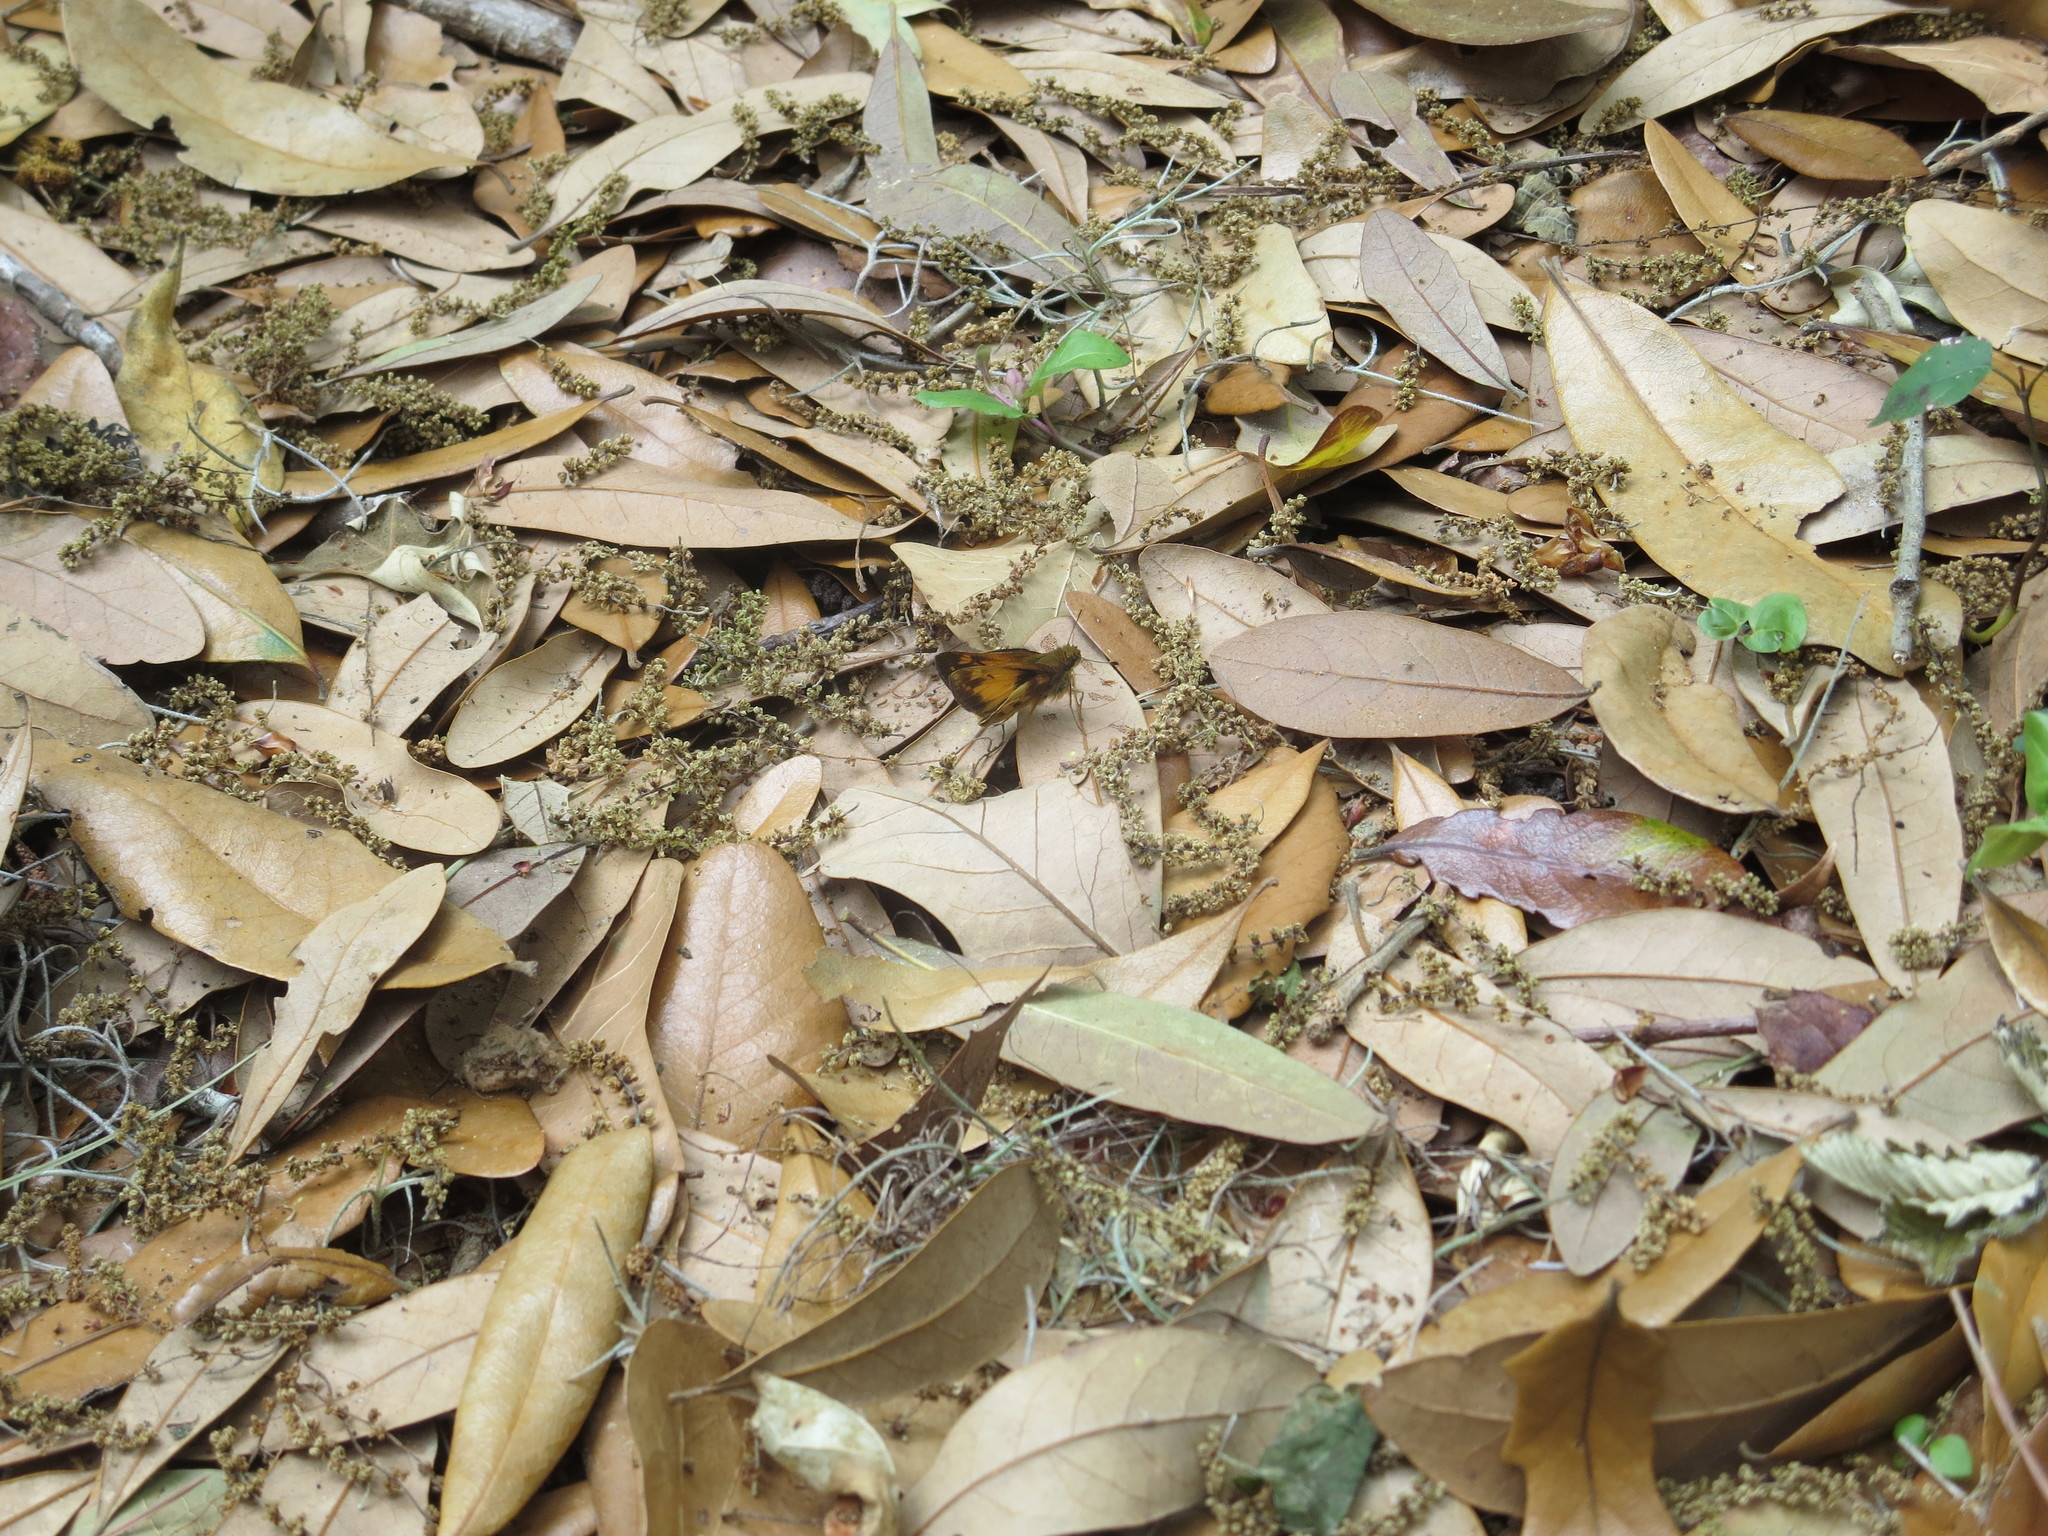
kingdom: Animalia
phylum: Arthropoda
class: Insecta
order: Lepidoptera
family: Hesperiidae
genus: Lon
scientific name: Lon zabulon
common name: Zabulon skipper
